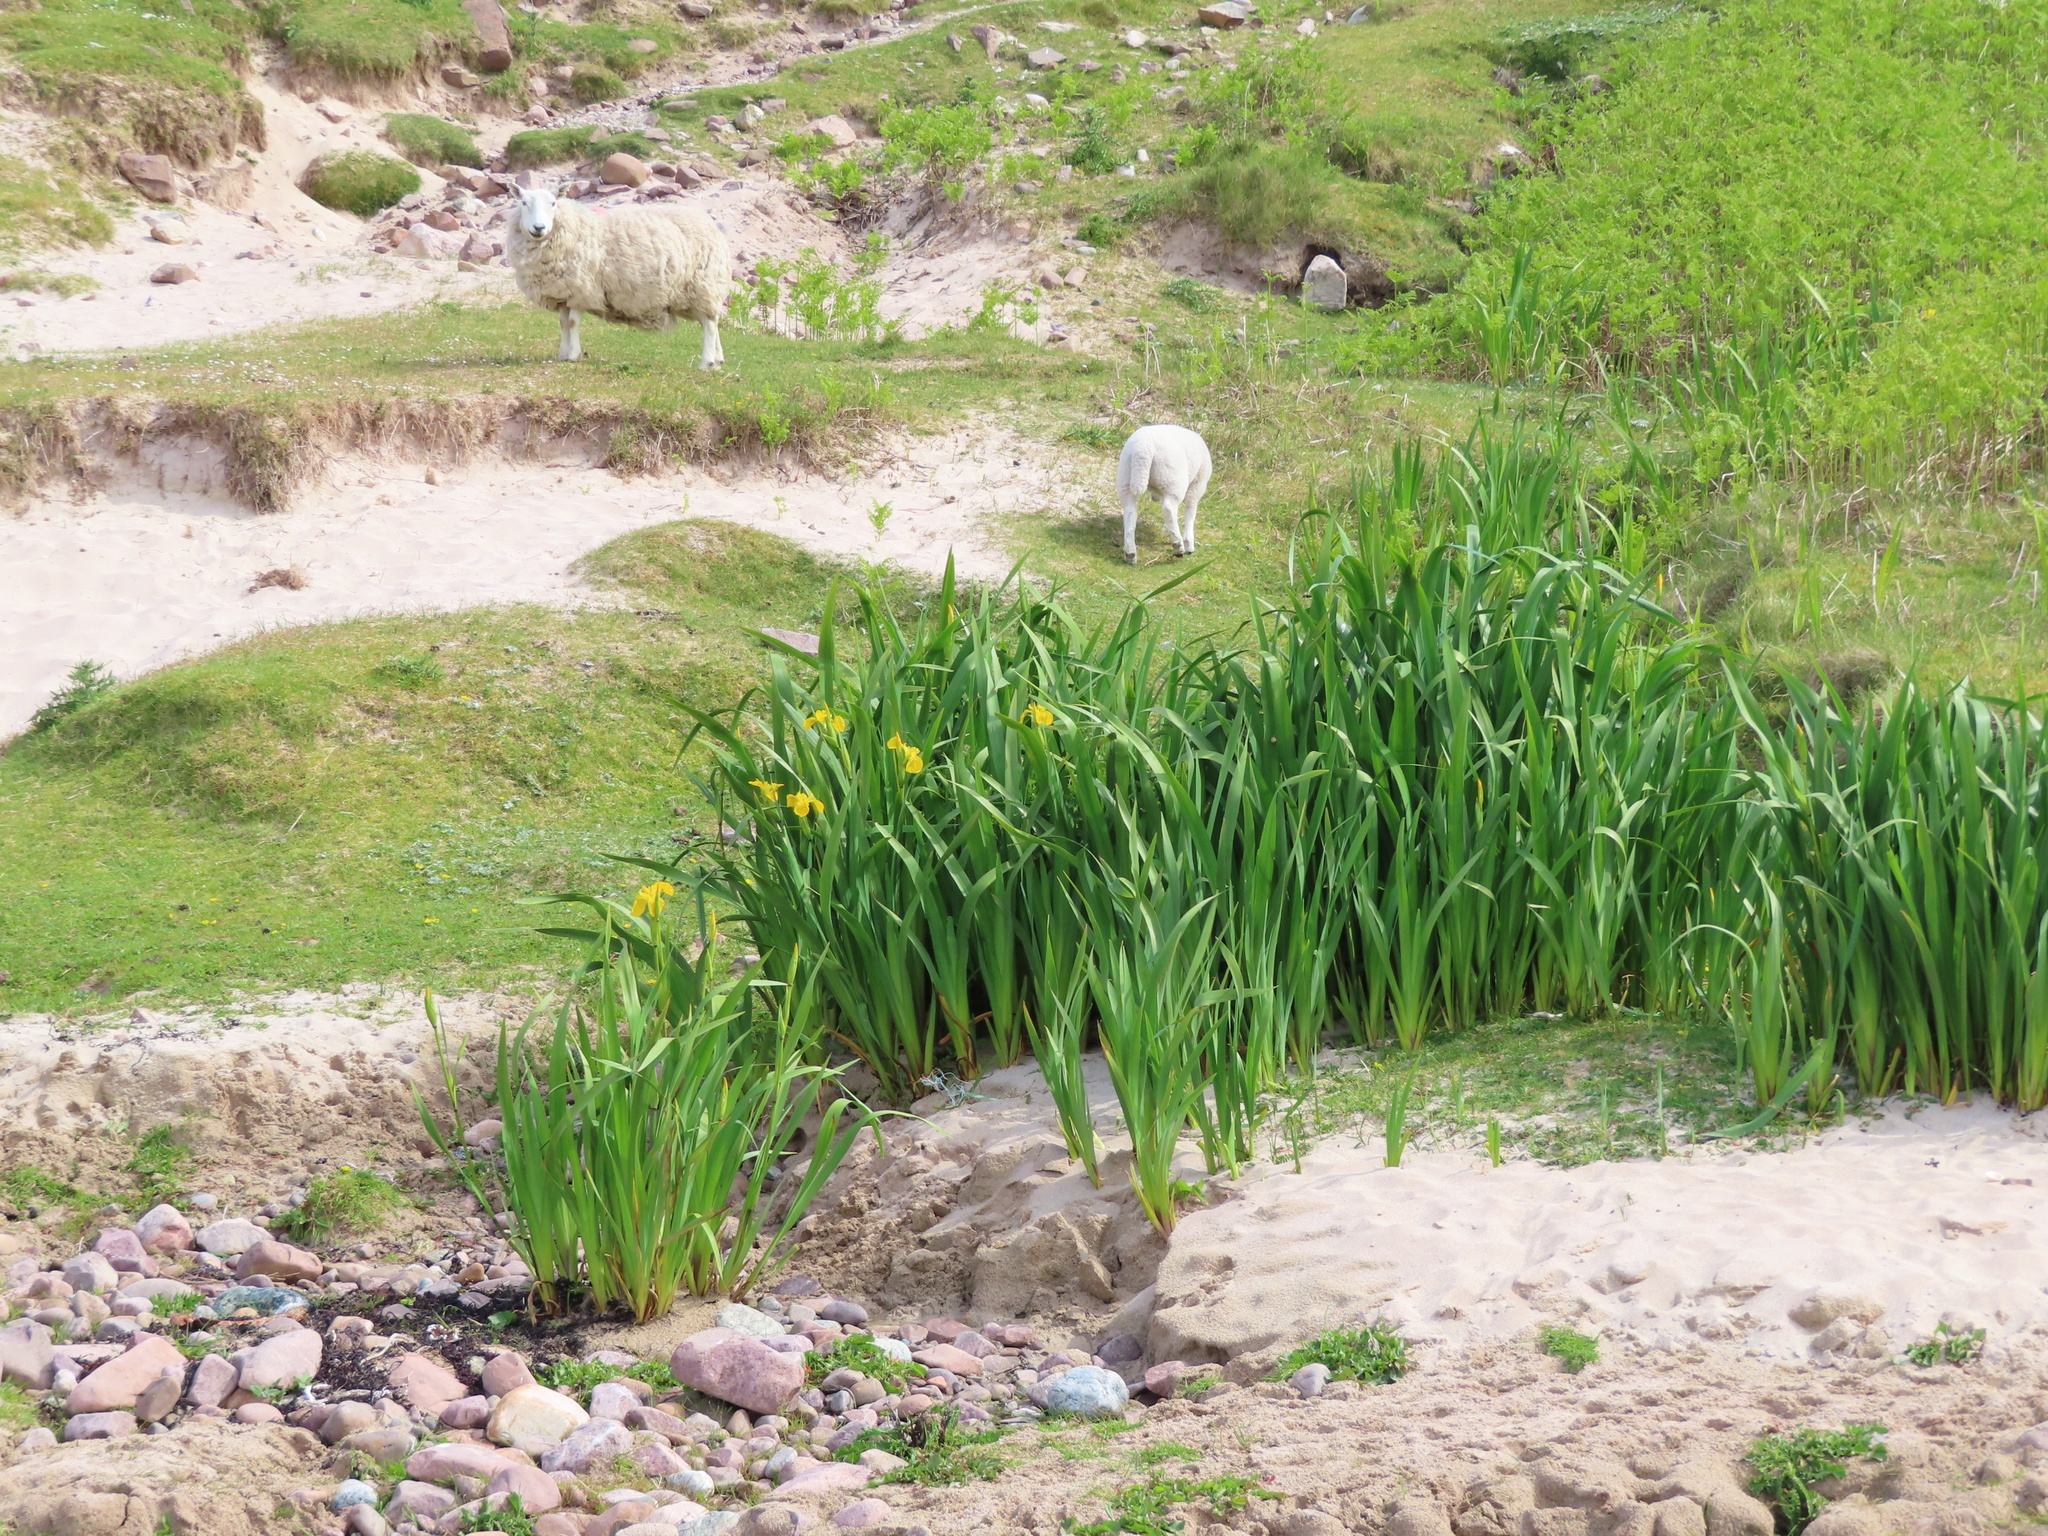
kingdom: Plantae
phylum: Tracheophyta
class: Liliopsida
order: Asparagales
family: Iridaceae
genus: Iris
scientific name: Iris pseudacorus
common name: Yellow flag
